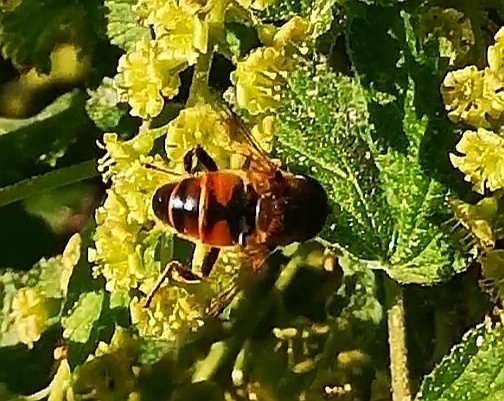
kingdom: Animalia
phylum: Arthropoda
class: Insecta
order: Diptera
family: Syrphidae
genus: Eristalis
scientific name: Eristalis tenax
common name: Drone fly
